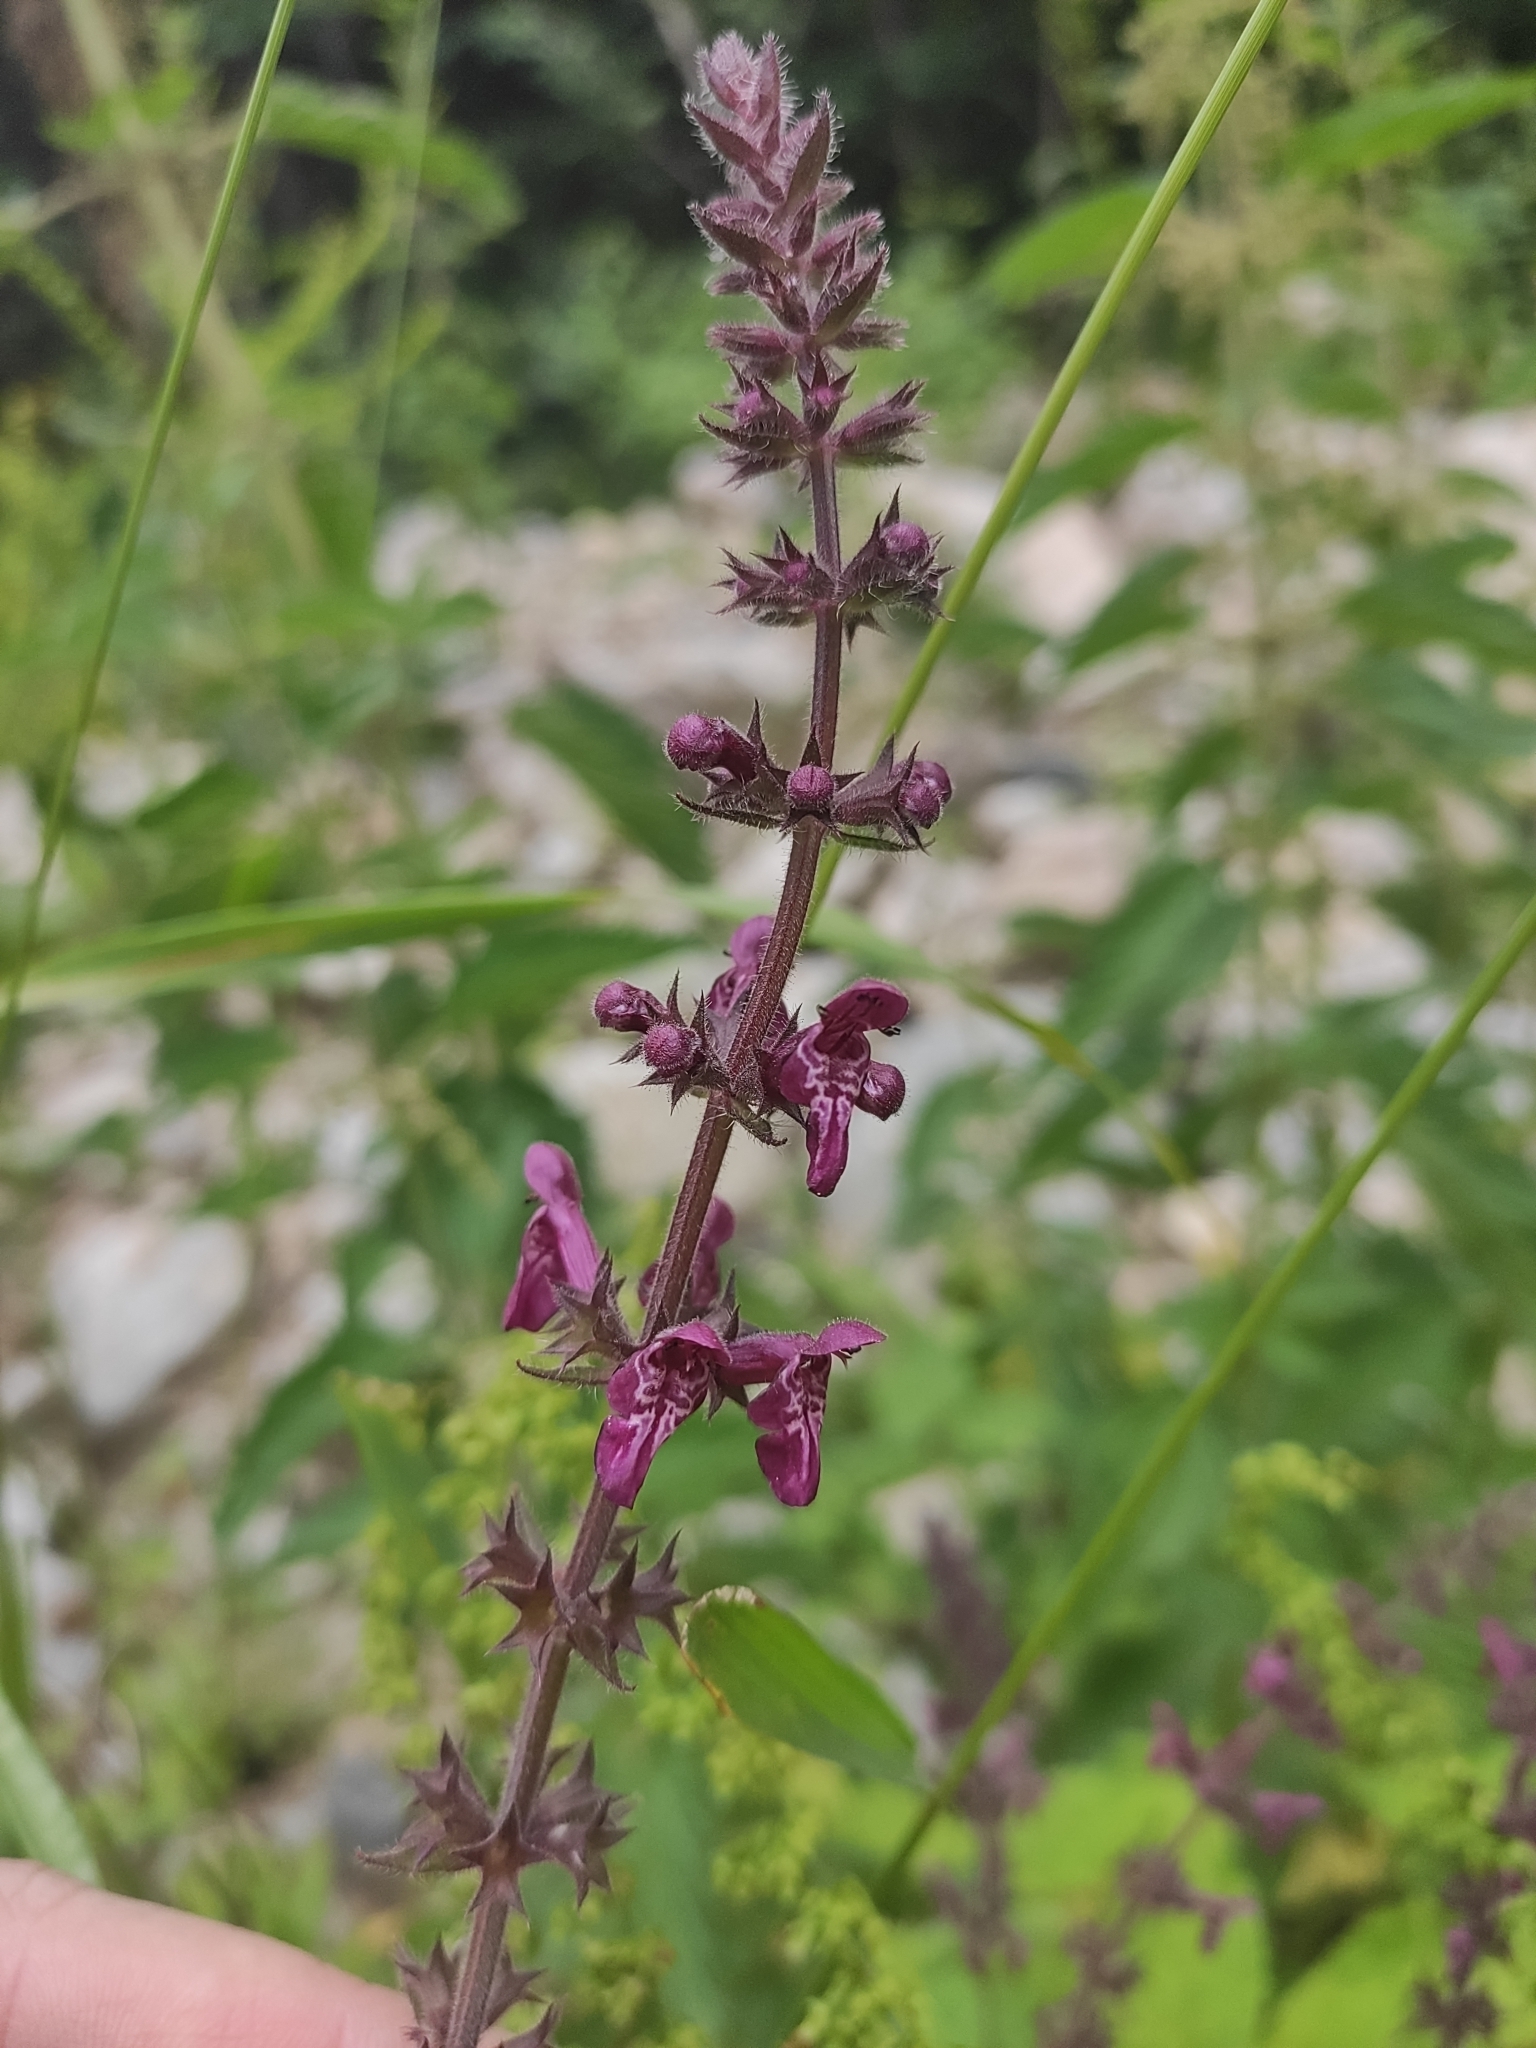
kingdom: Plantae
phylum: Tracheophyta
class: Magnoliopsida
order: Lamiales
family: Lamiaceae
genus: Stachys
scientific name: Stachys sylvatica
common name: Hedge woundwort
